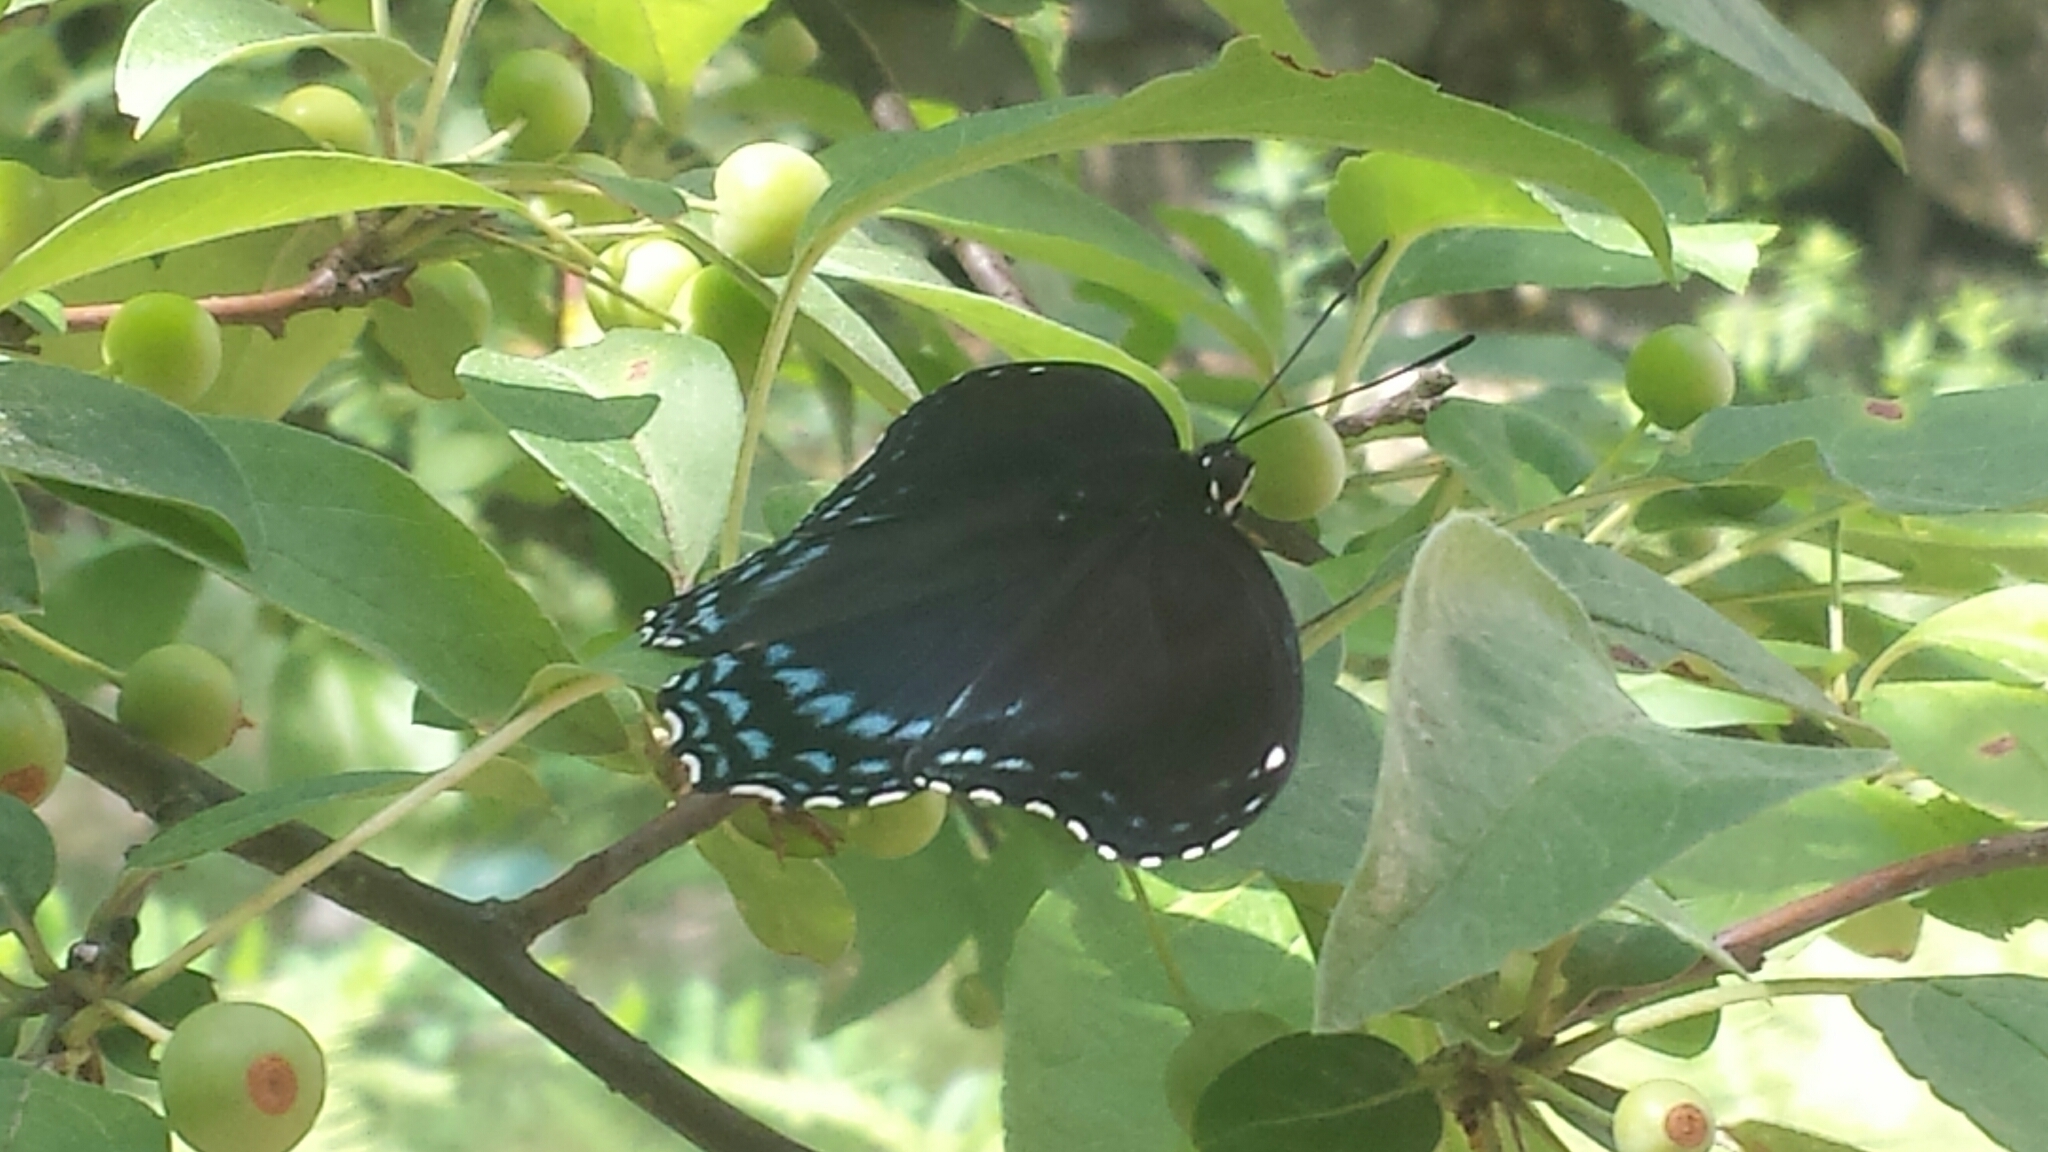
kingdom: Animalia
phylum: Arthropoda
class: Insecta
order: Lepidoptera
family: Nymphalidae
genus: Limenitis
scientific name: Limenitis arthemis
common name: Red-spotted admiral
